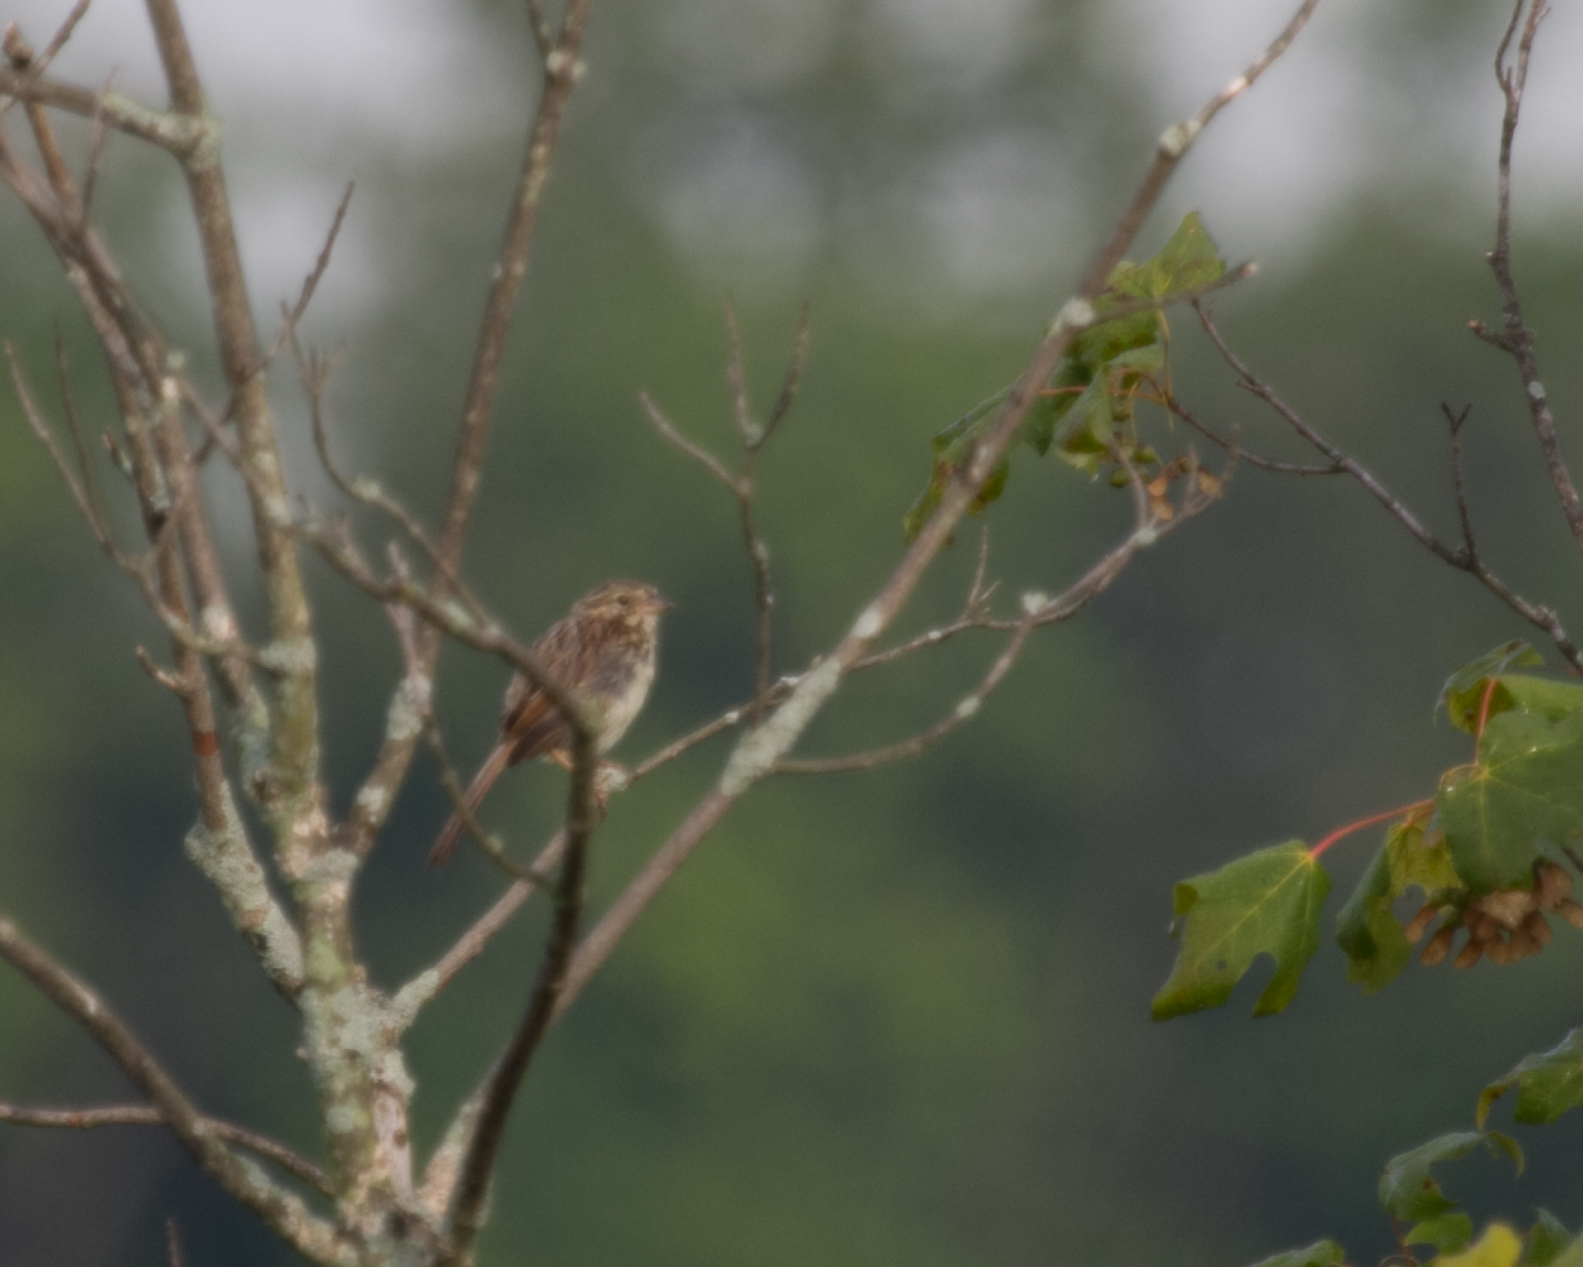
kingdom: Animalia
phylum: Chordata
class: Aves
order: Passeriformes
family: Passerellidae
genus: Melospiza
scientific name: Melospiza melodia
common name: Song sparrow
